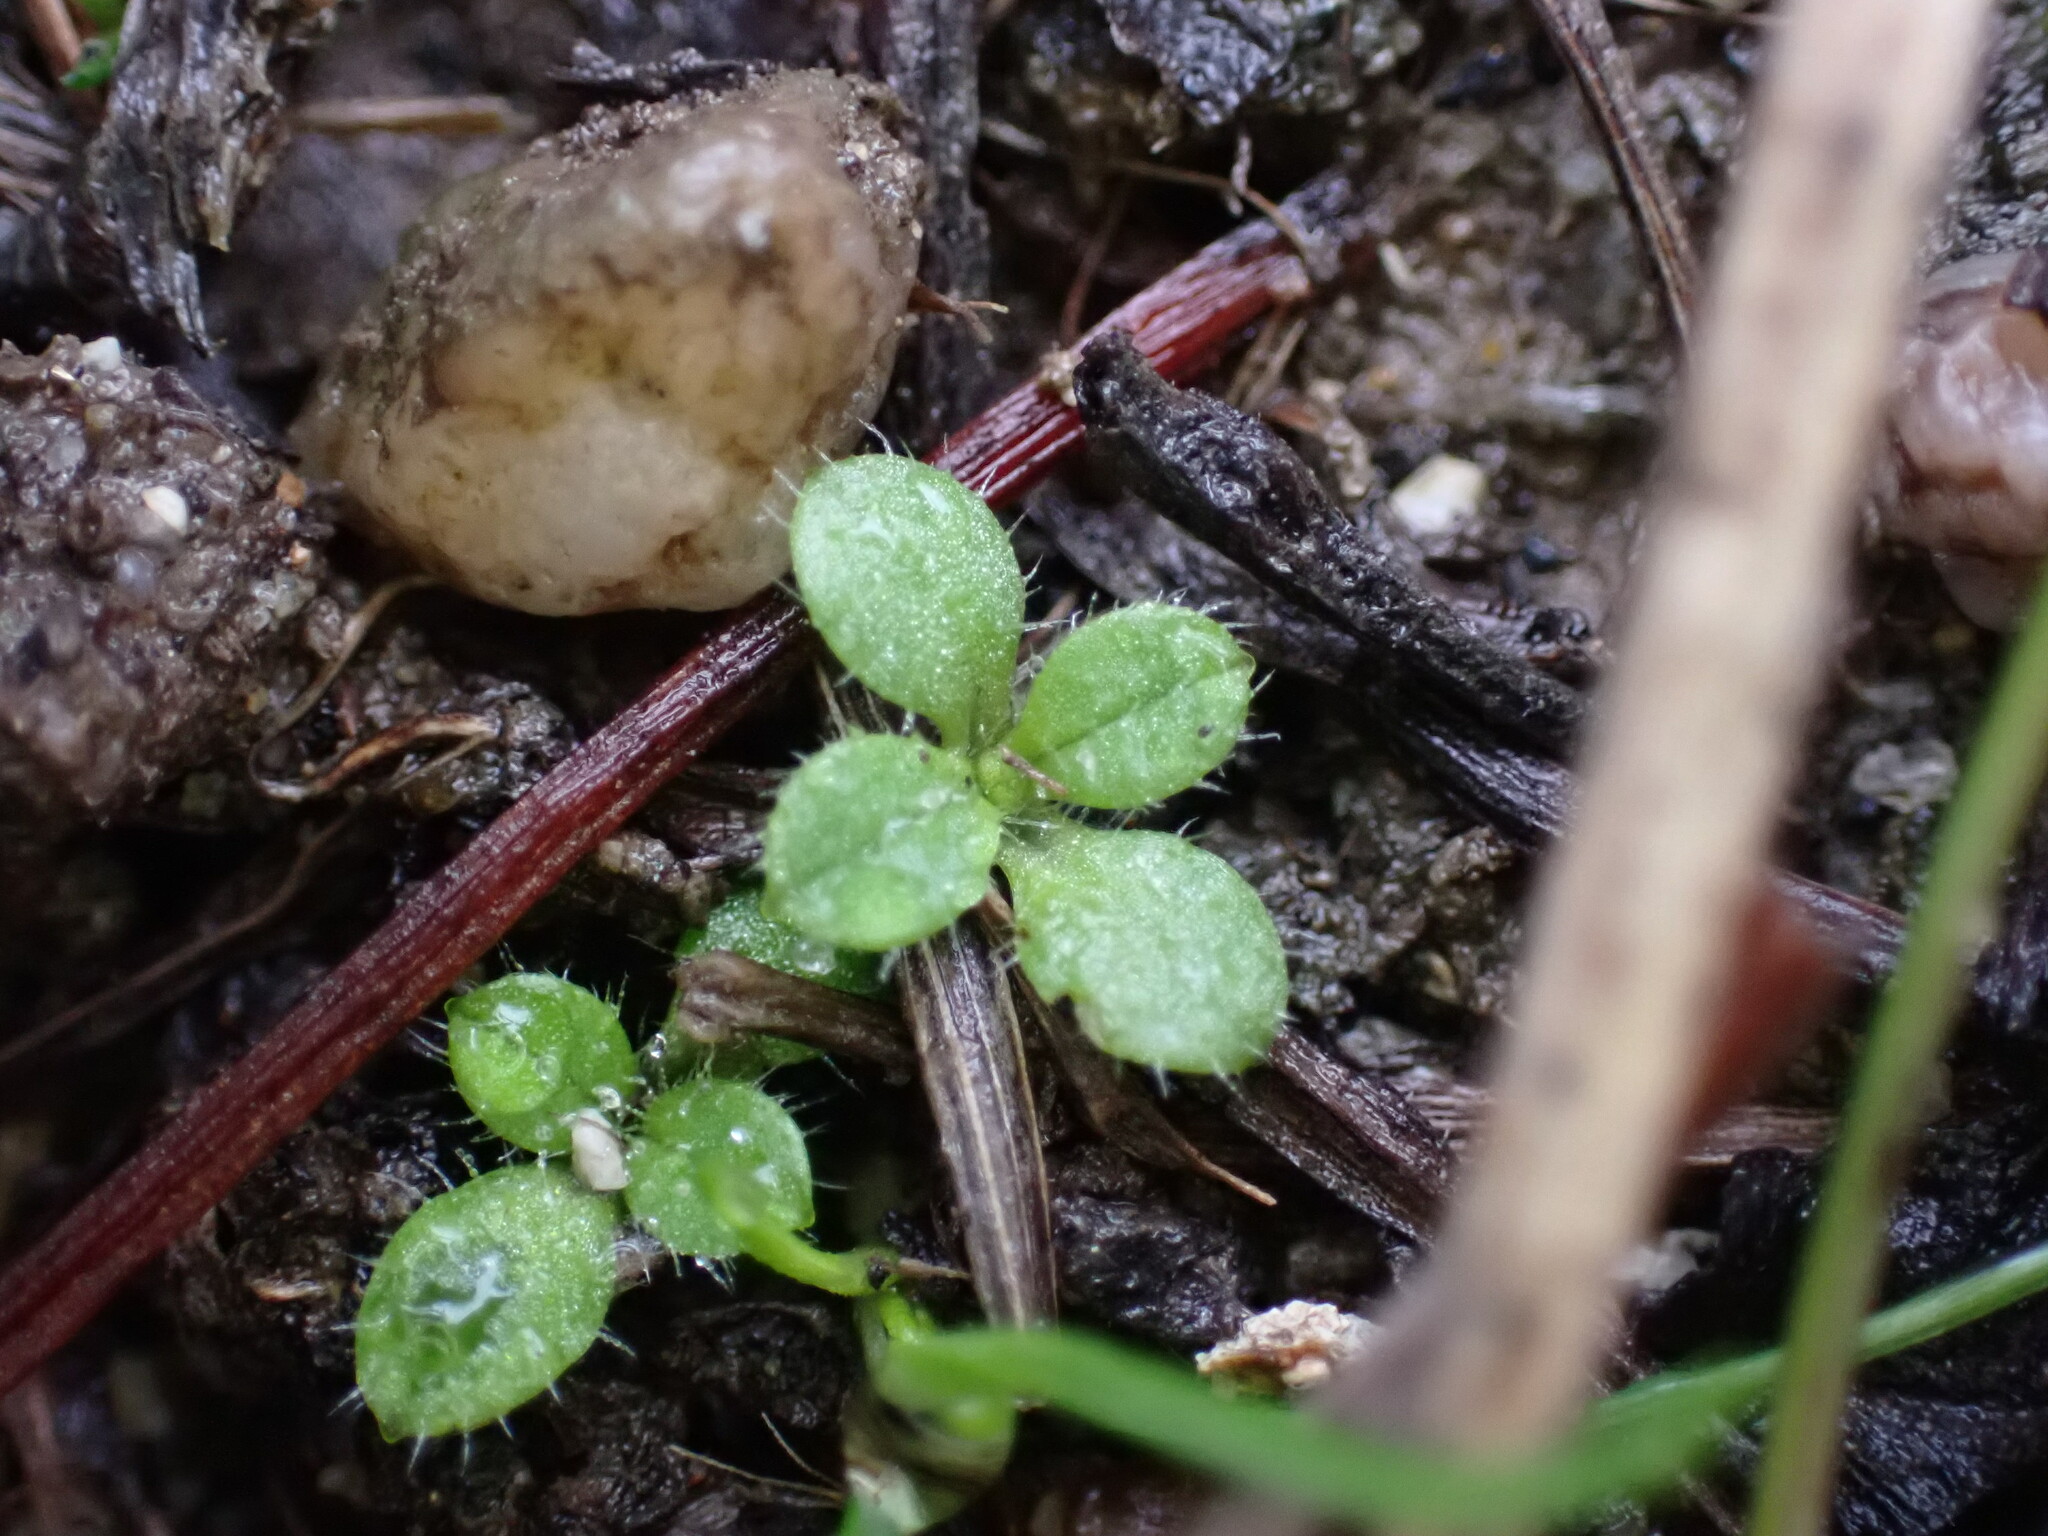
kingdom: Plantae
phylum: Tracheophyta
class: Magnoliopsida
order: Caryophyllales
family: Caryophyllaceae
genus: Cerastium
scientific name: Cerastium fontanum
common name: Common mouse-ear
